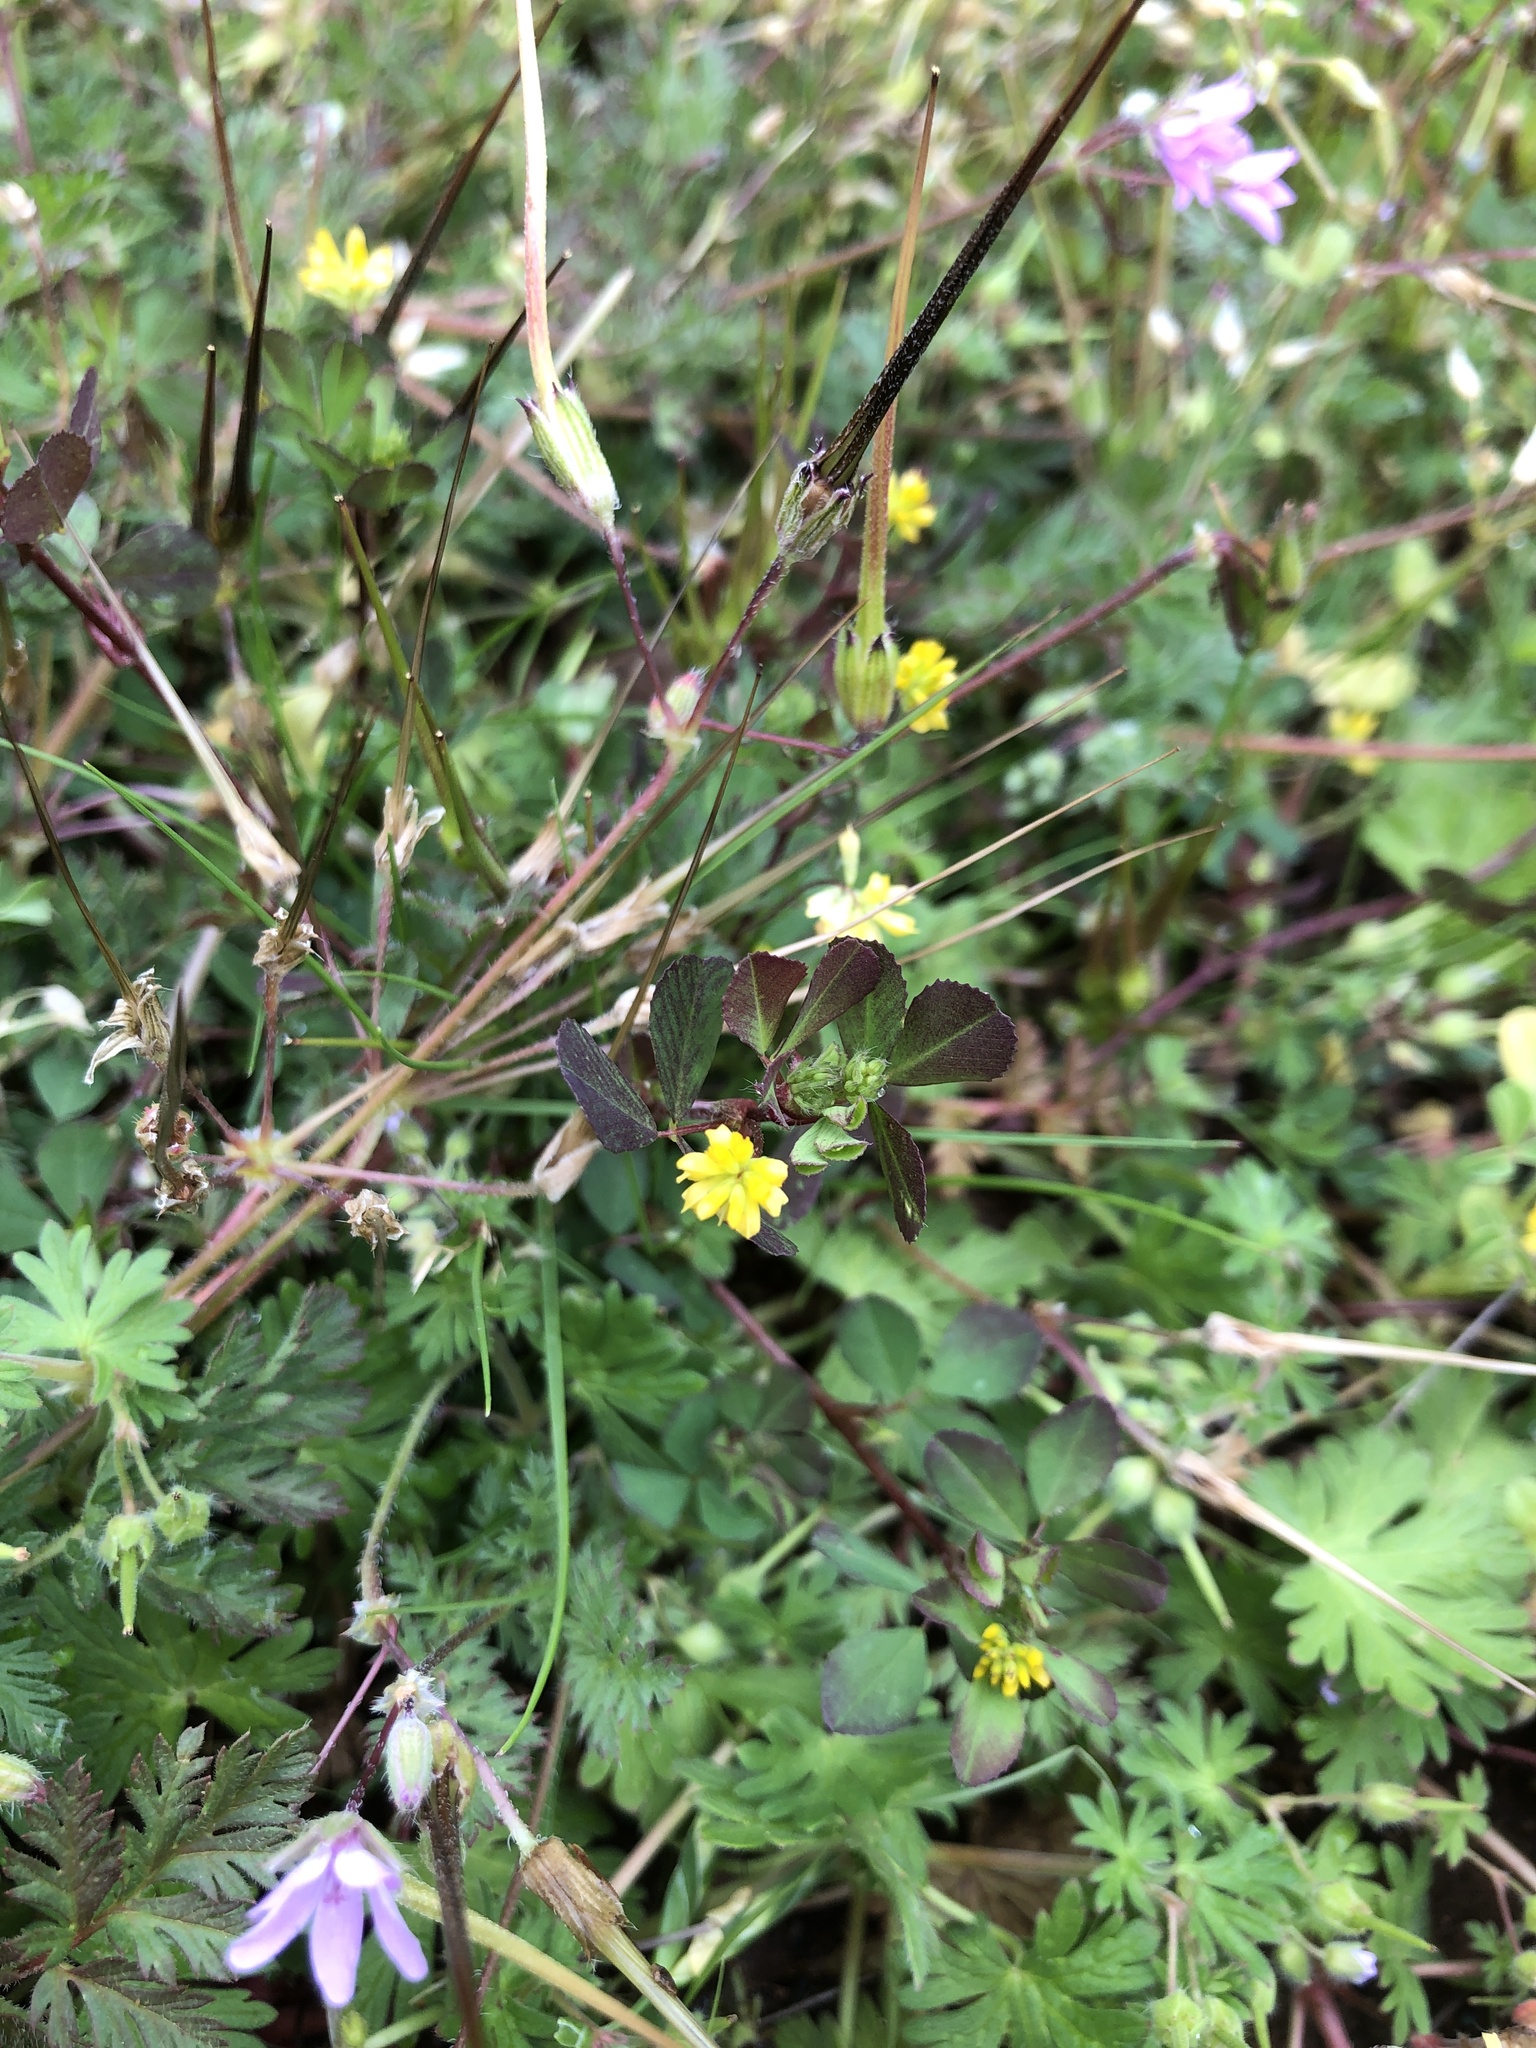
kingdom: Plantae
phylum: Tracheophyta
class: Magnoliopsida
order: Fabales
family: Fabaceae
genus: Trifolium
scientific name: Trifolium dubium
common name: Suckling clover
